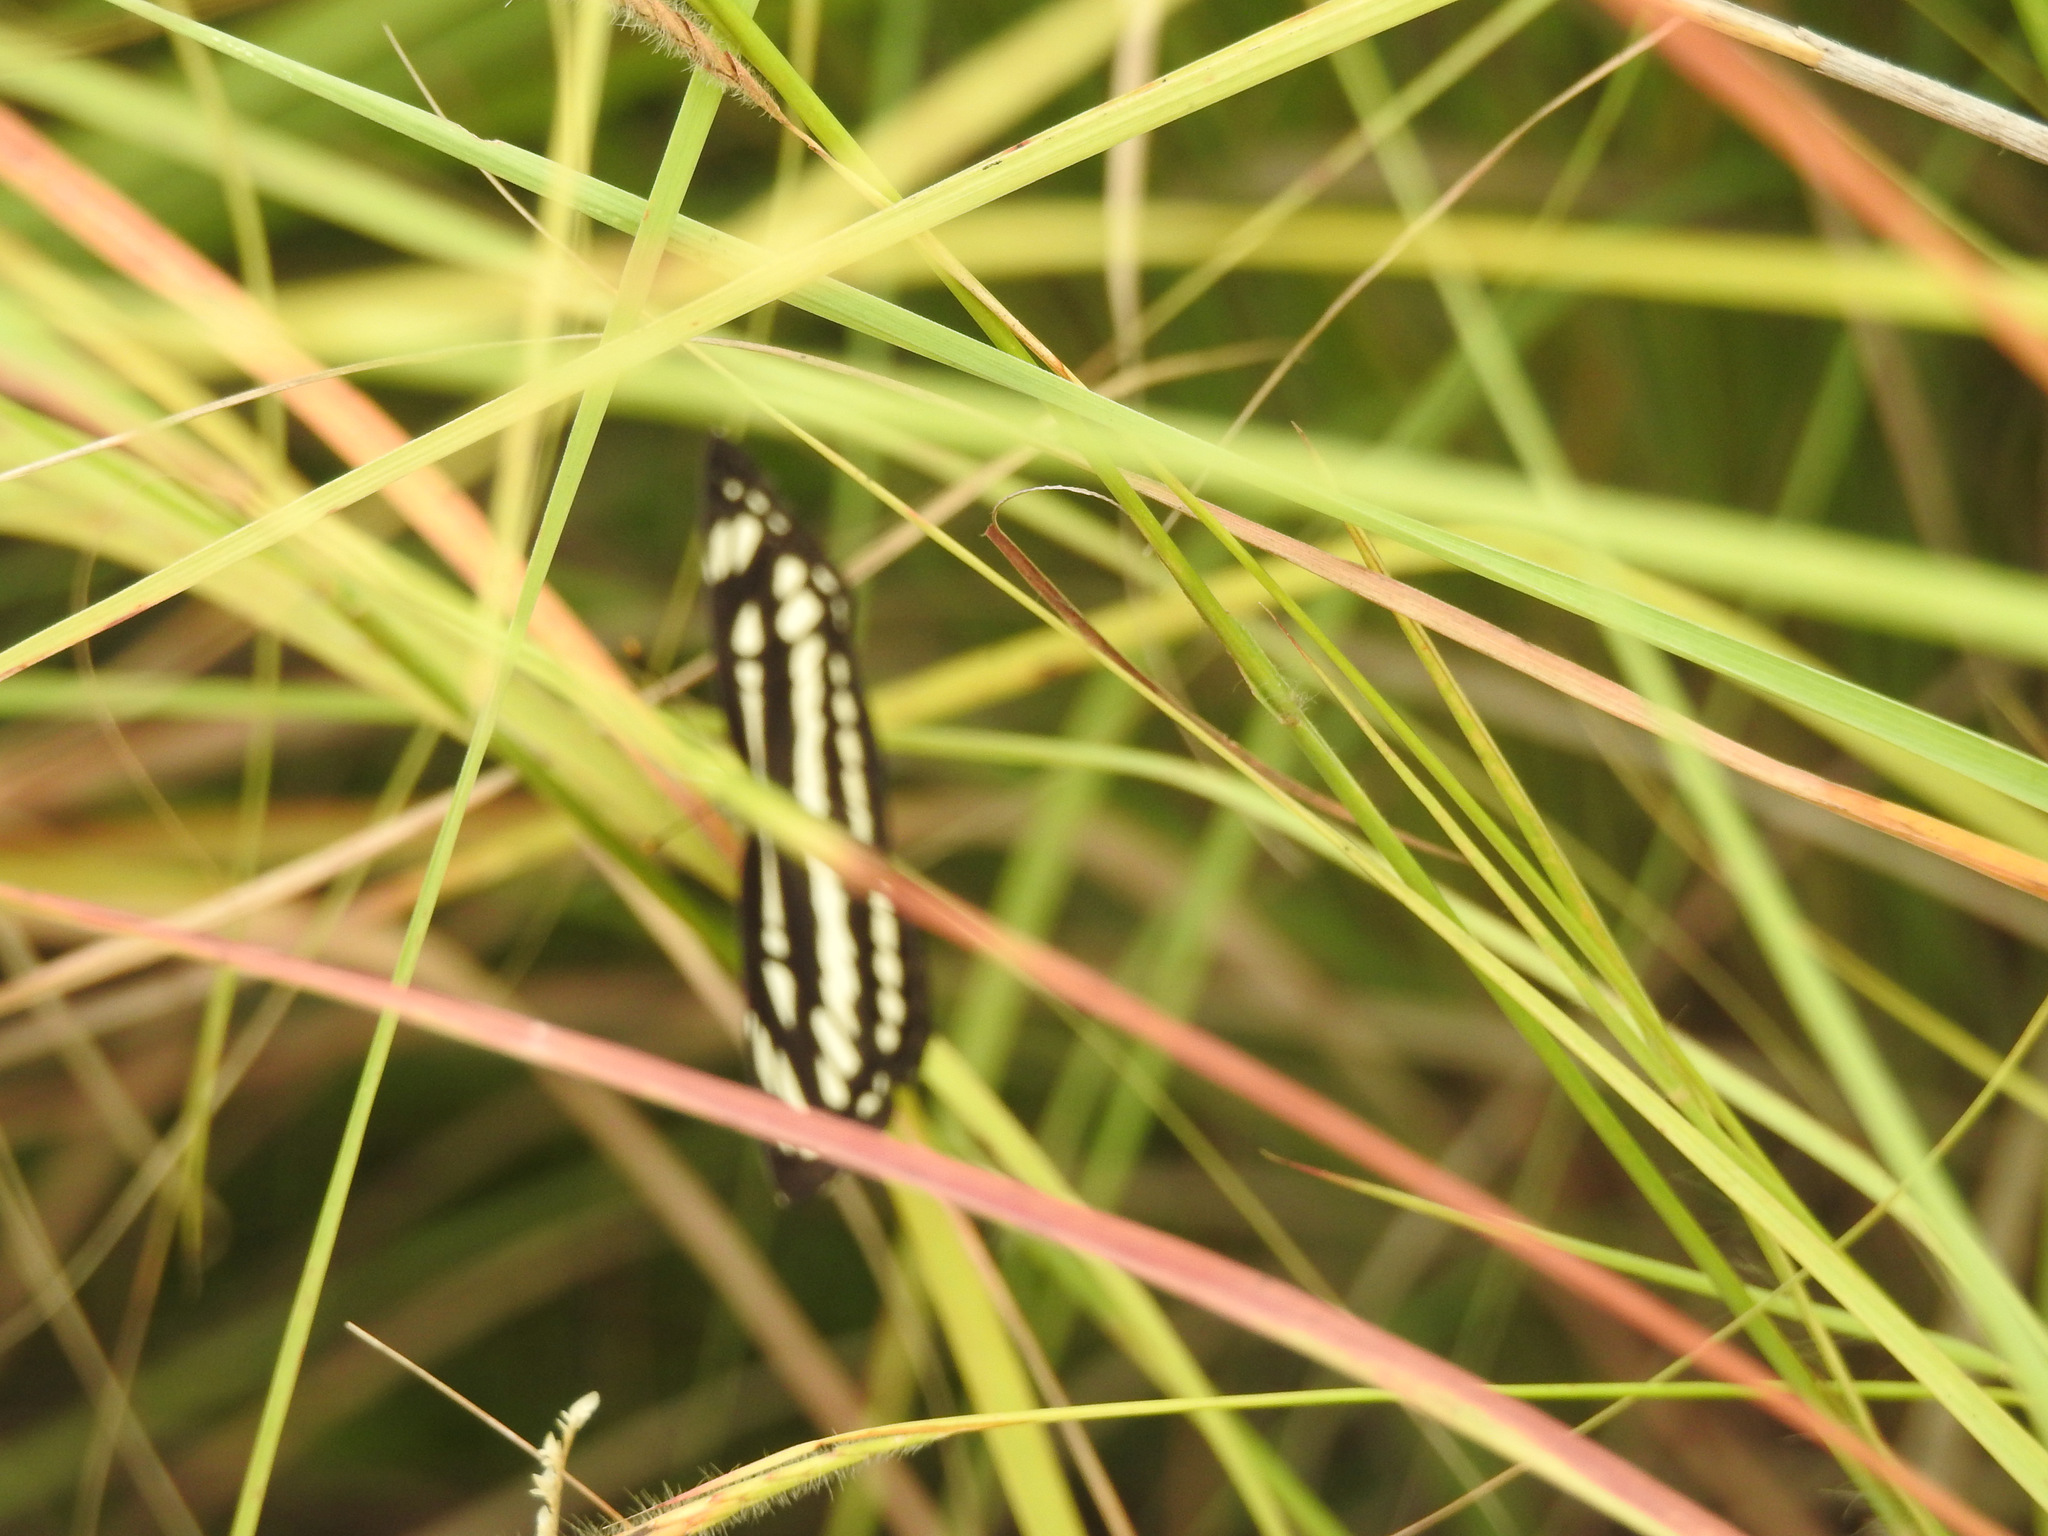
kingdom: Animalia
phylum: Arthropoda
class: Insecta
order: Lepidoptera
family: Nymphalidae
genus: Neptis
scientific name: Neptis hylas
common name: Common sailer
